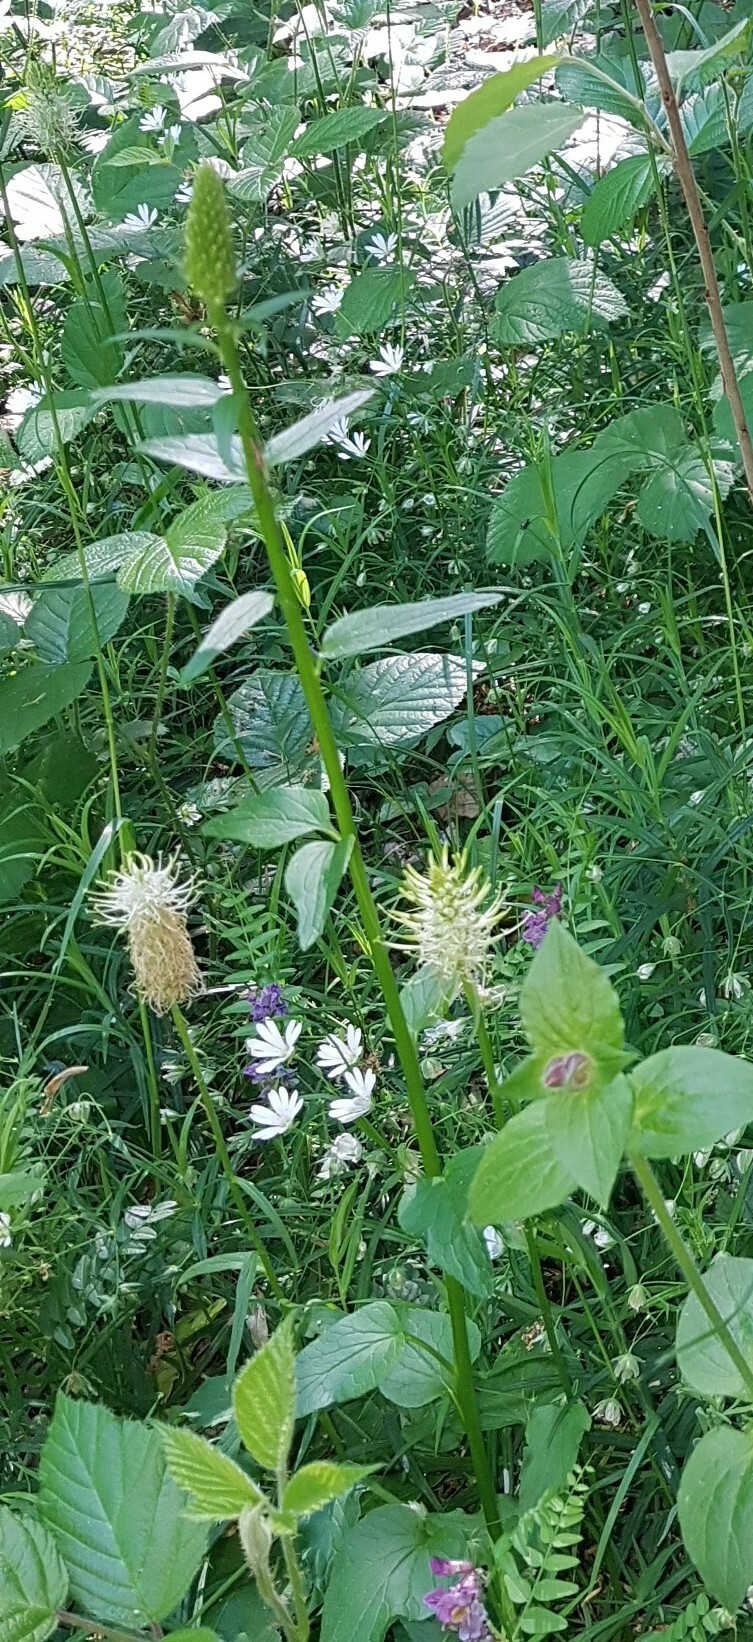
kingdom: Plantae
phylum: Tracheophyta
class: Magnoliopsida
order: Asterales
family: Campanulaceae
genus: Phyteuma
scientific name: Phyteuma spicatum
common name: Spiked rampion
